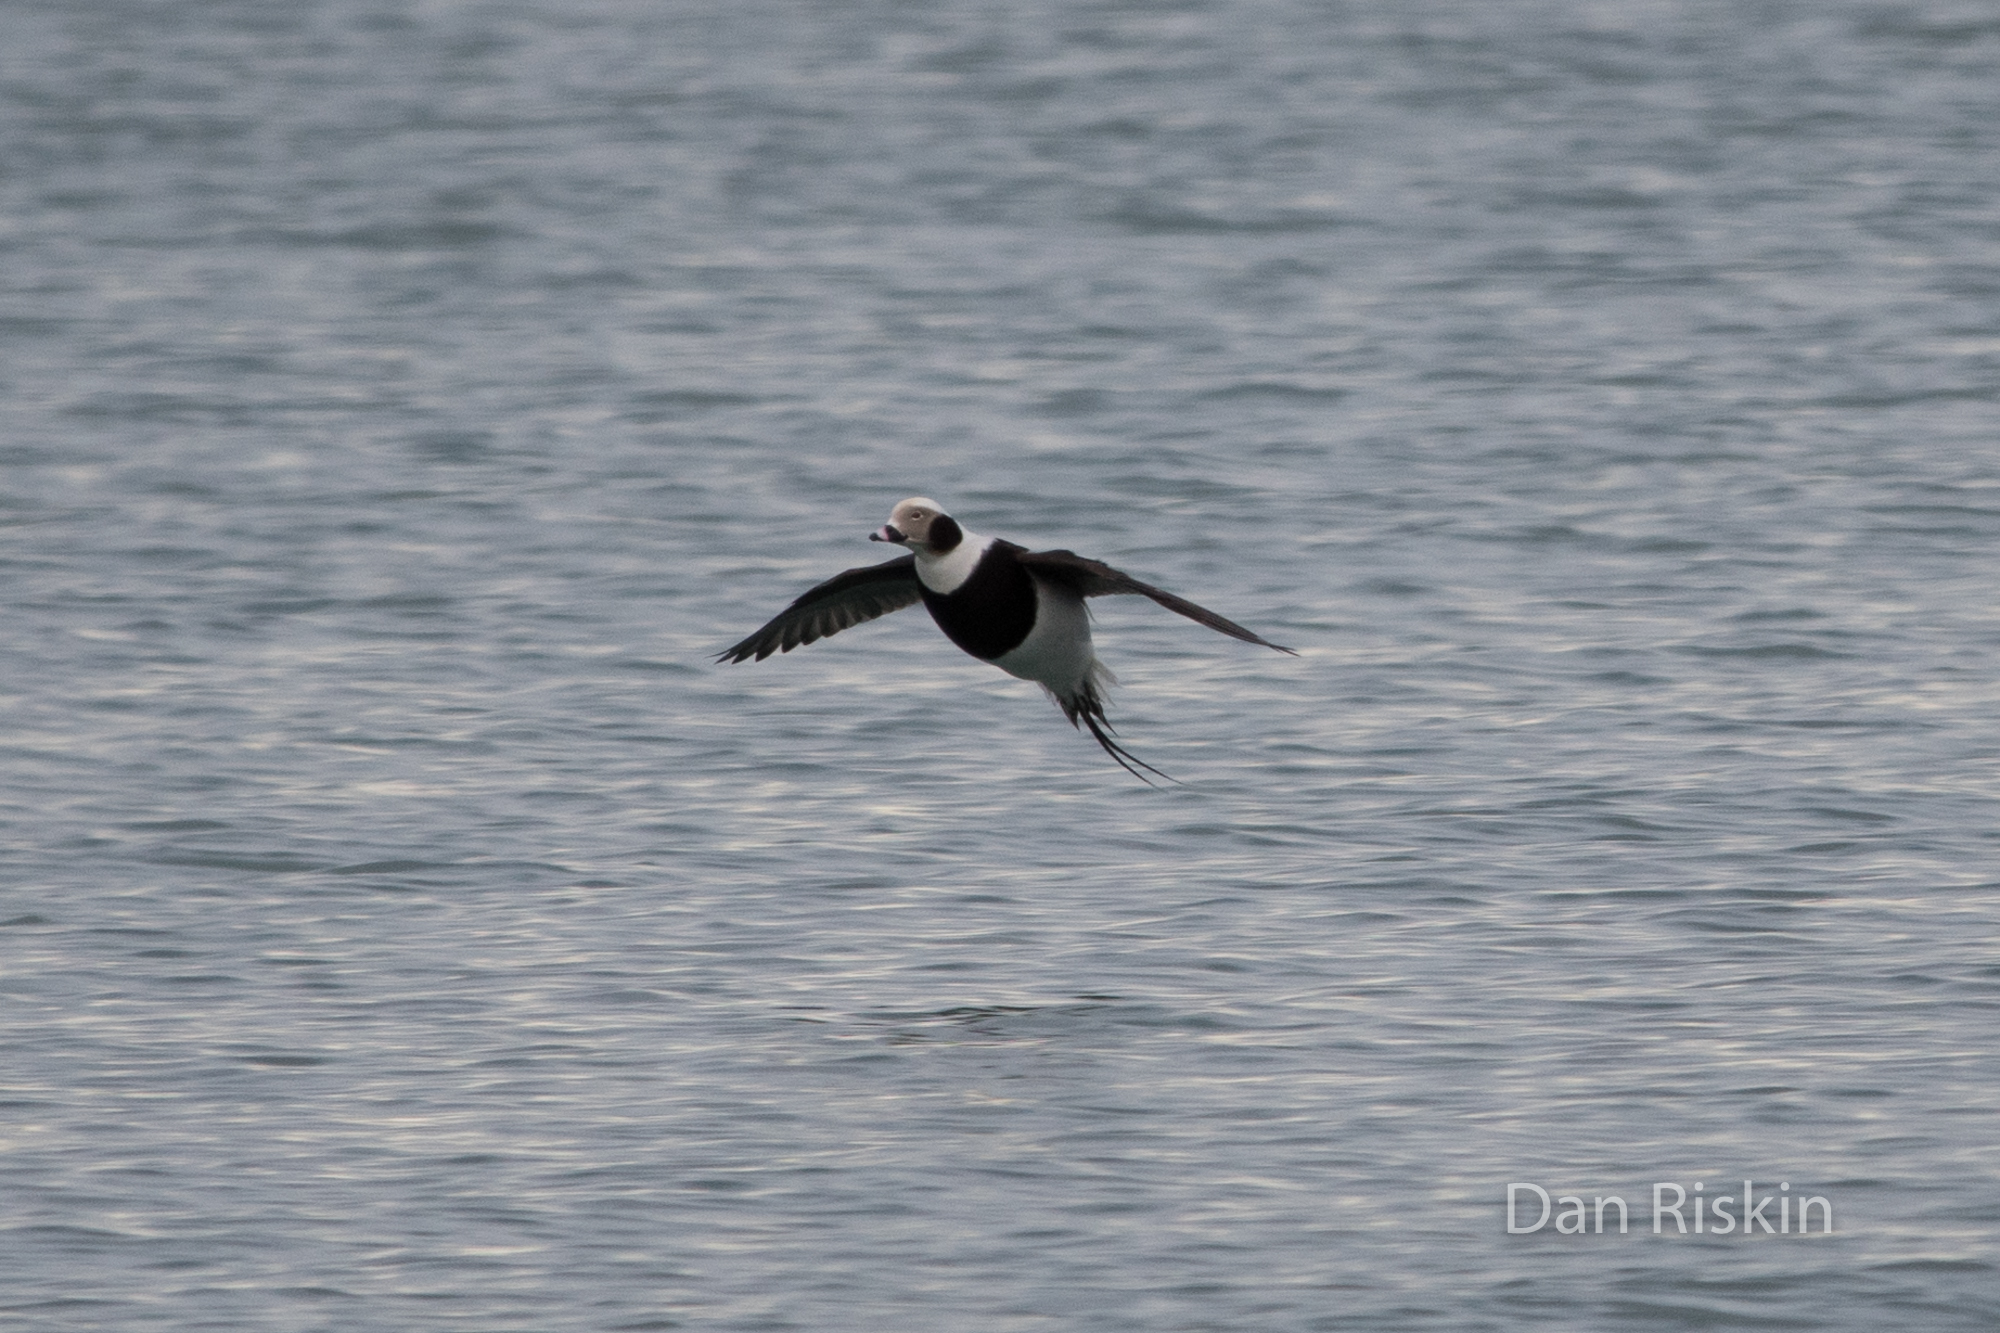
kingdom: Animalia
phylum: Chordata
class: Aves
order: Anseriformes
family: Anatidae
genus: Clangula
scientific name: Clangula hyemalis
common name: Long-tailed duck
